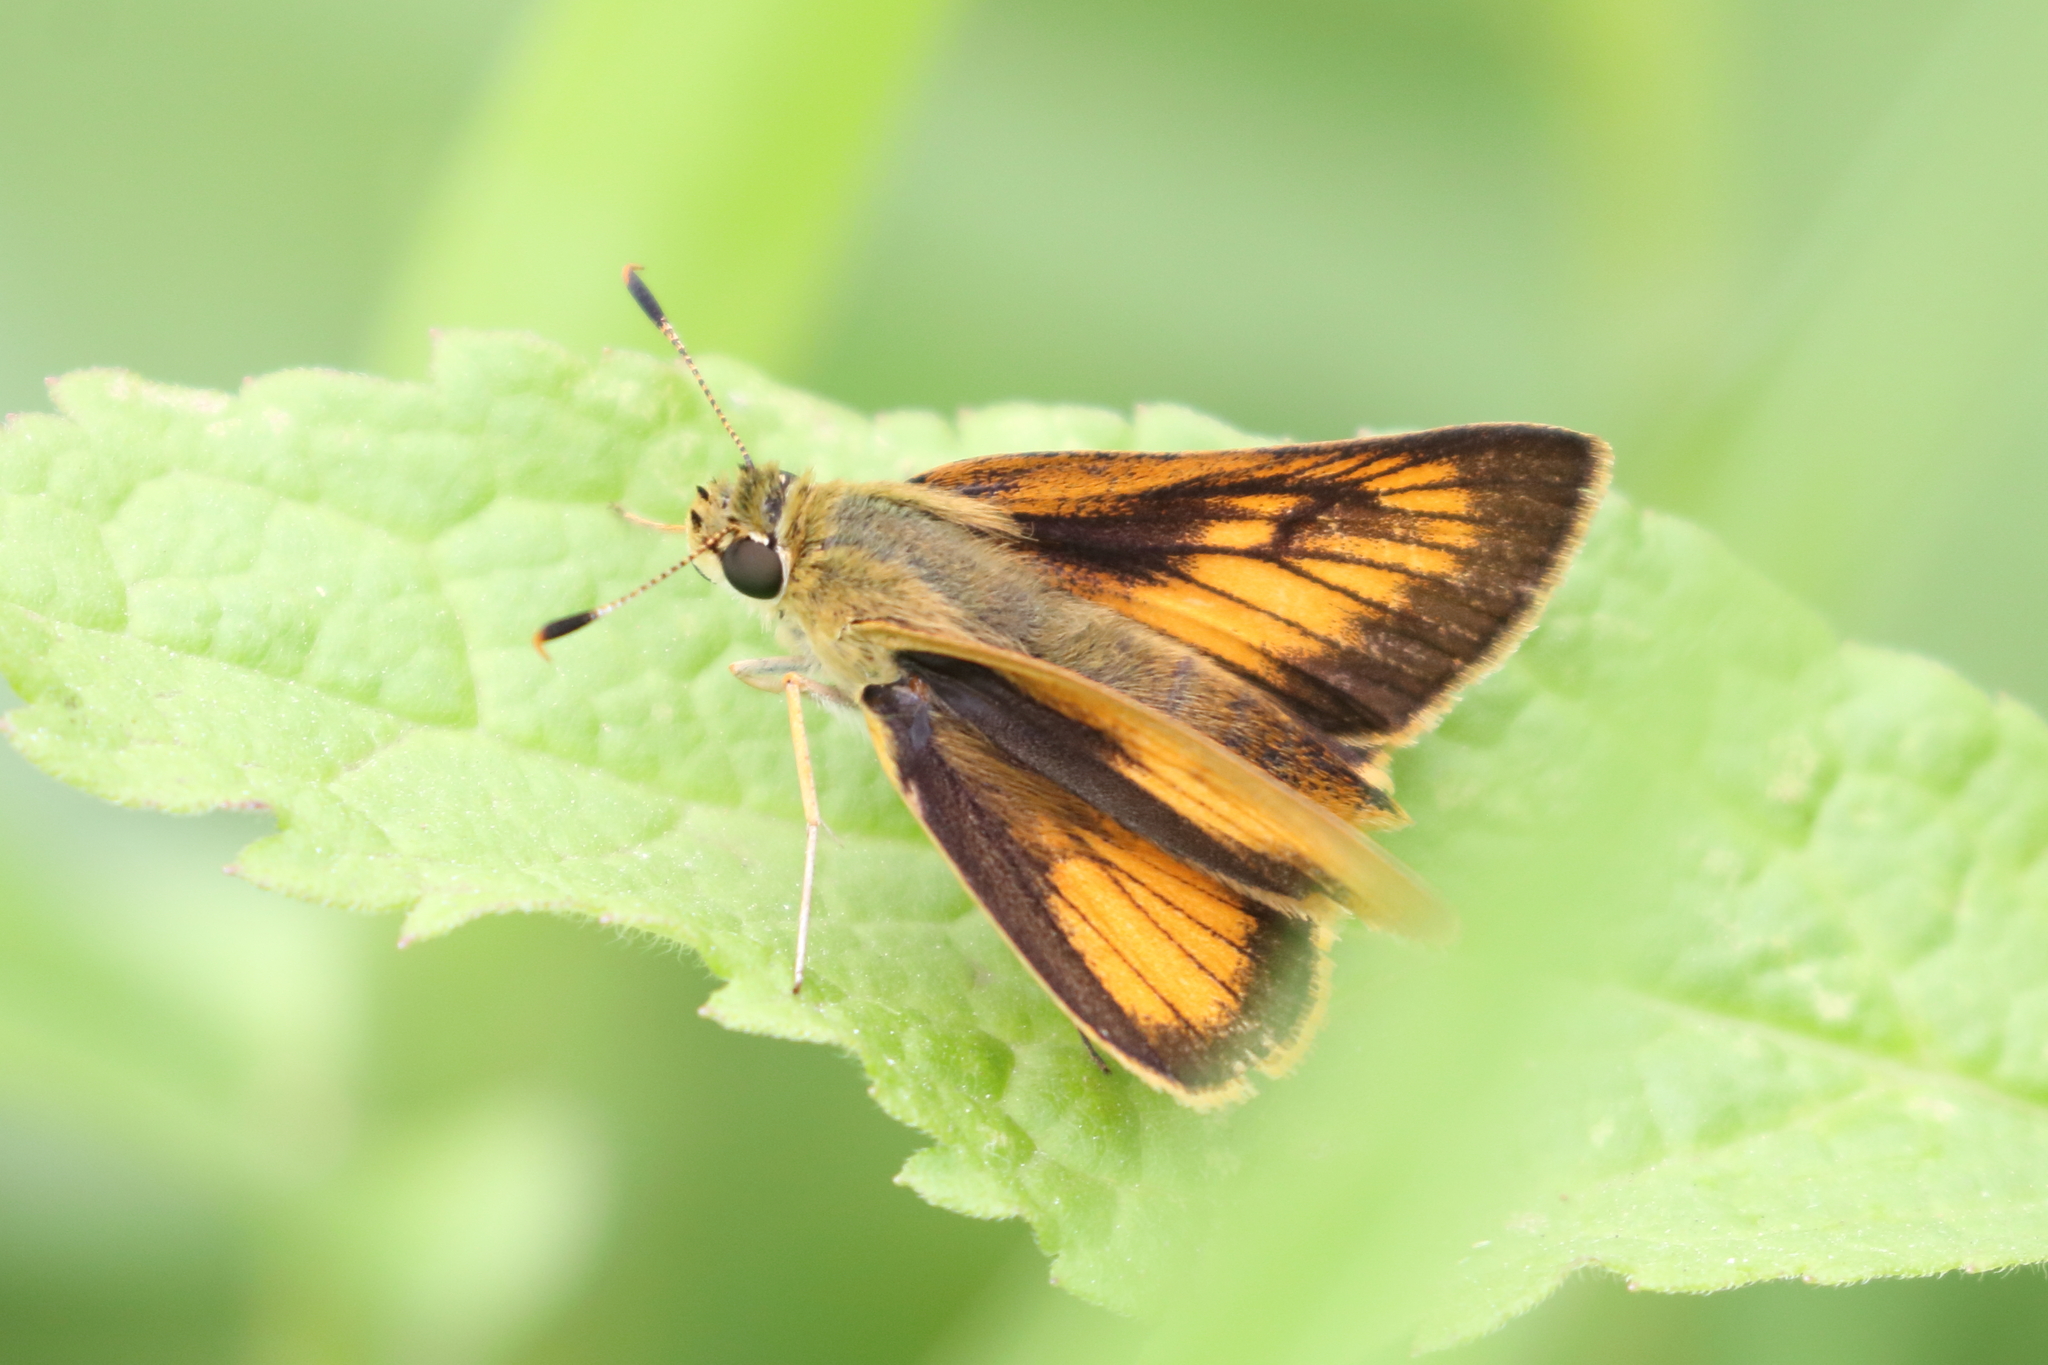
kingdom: Animalia
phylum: Arthropoda
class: Insecta
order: Lepidoptera
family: Hesperiidae
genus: Atrytone
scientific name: Atrytone delaware
